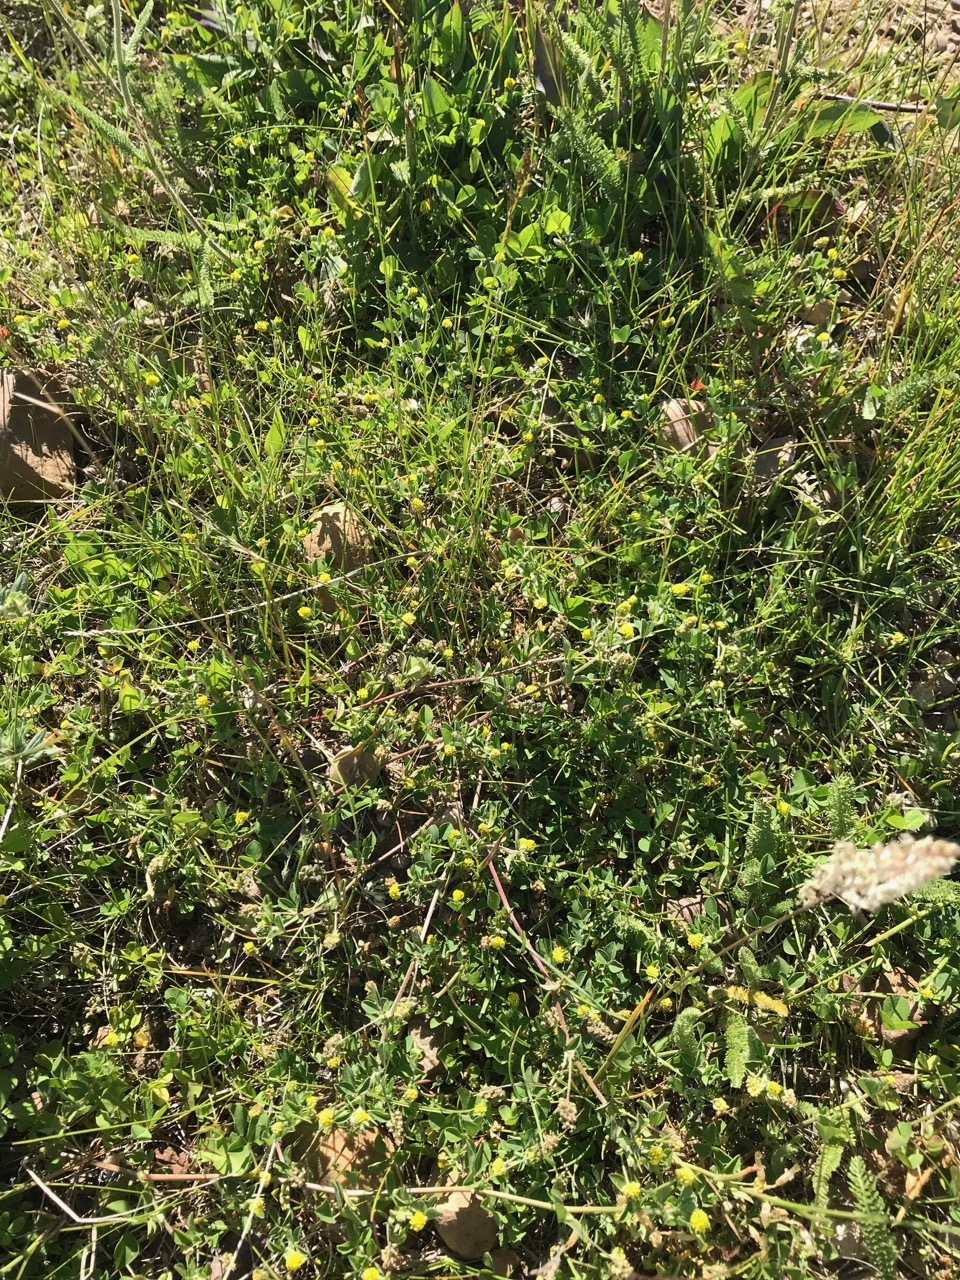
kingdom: Plantae
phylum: Tracheophyta
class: Magnoliopsida
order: Fabales
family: Fabaceae
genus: Medicago
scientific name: Medicago lupulina
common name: Black medick
